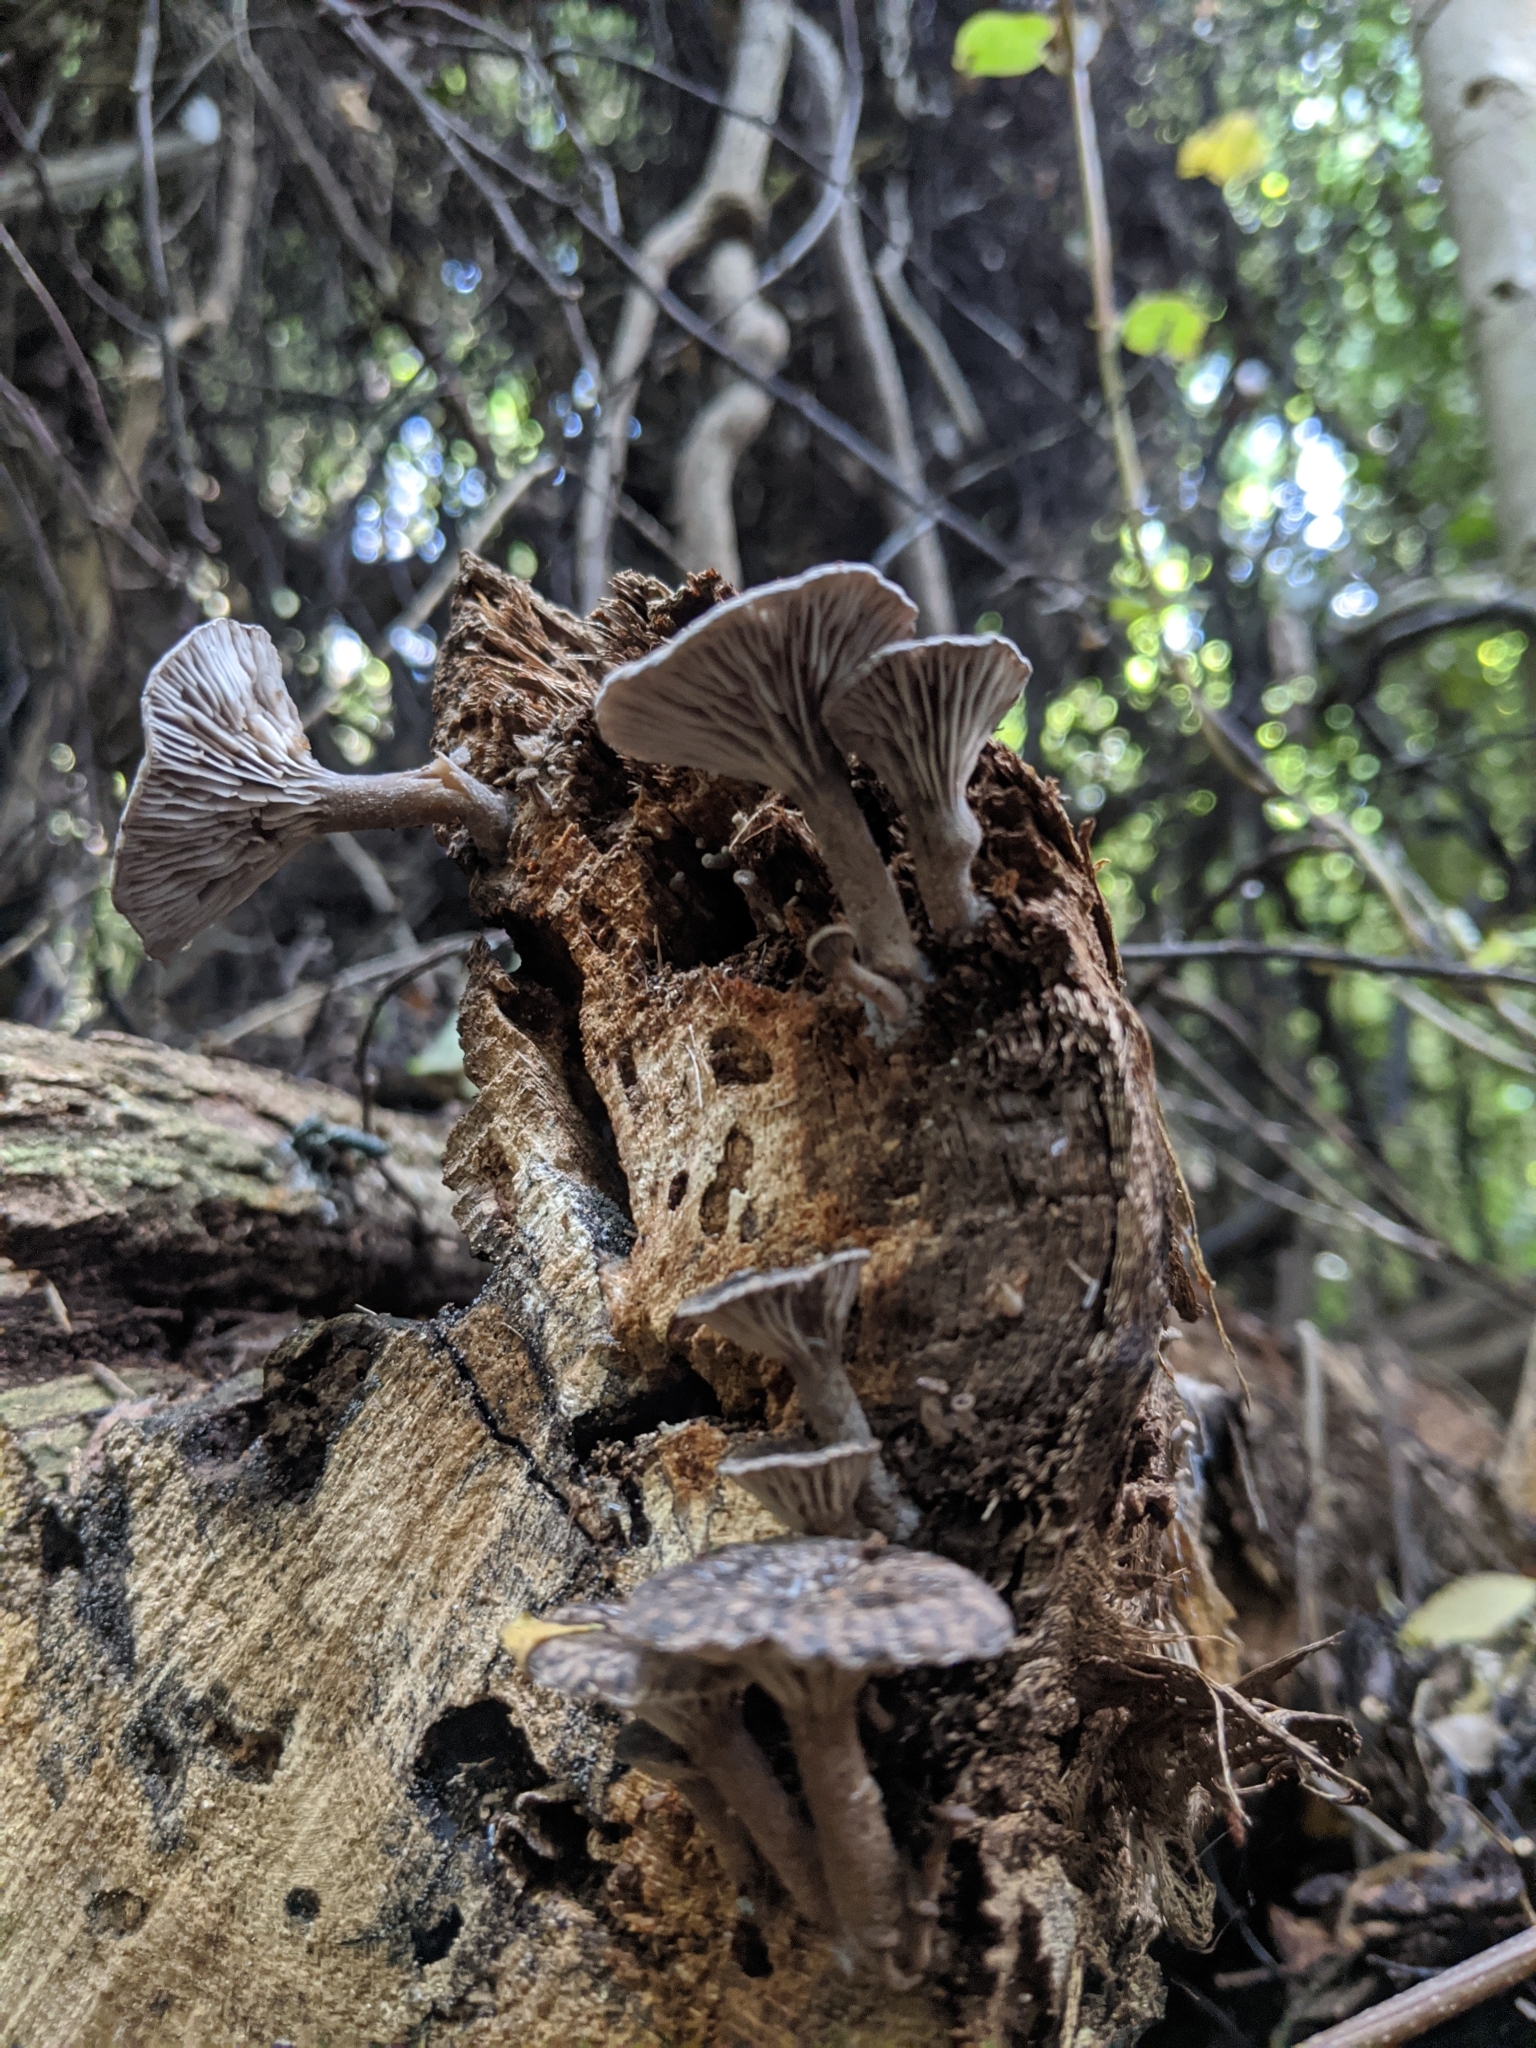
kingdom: Fungi
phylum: Basidiomycota
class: Agaricomycetes
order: Agaricales
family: Pleurotaceae
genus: Hohenbuehelia
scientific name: Hohenbuehelia
